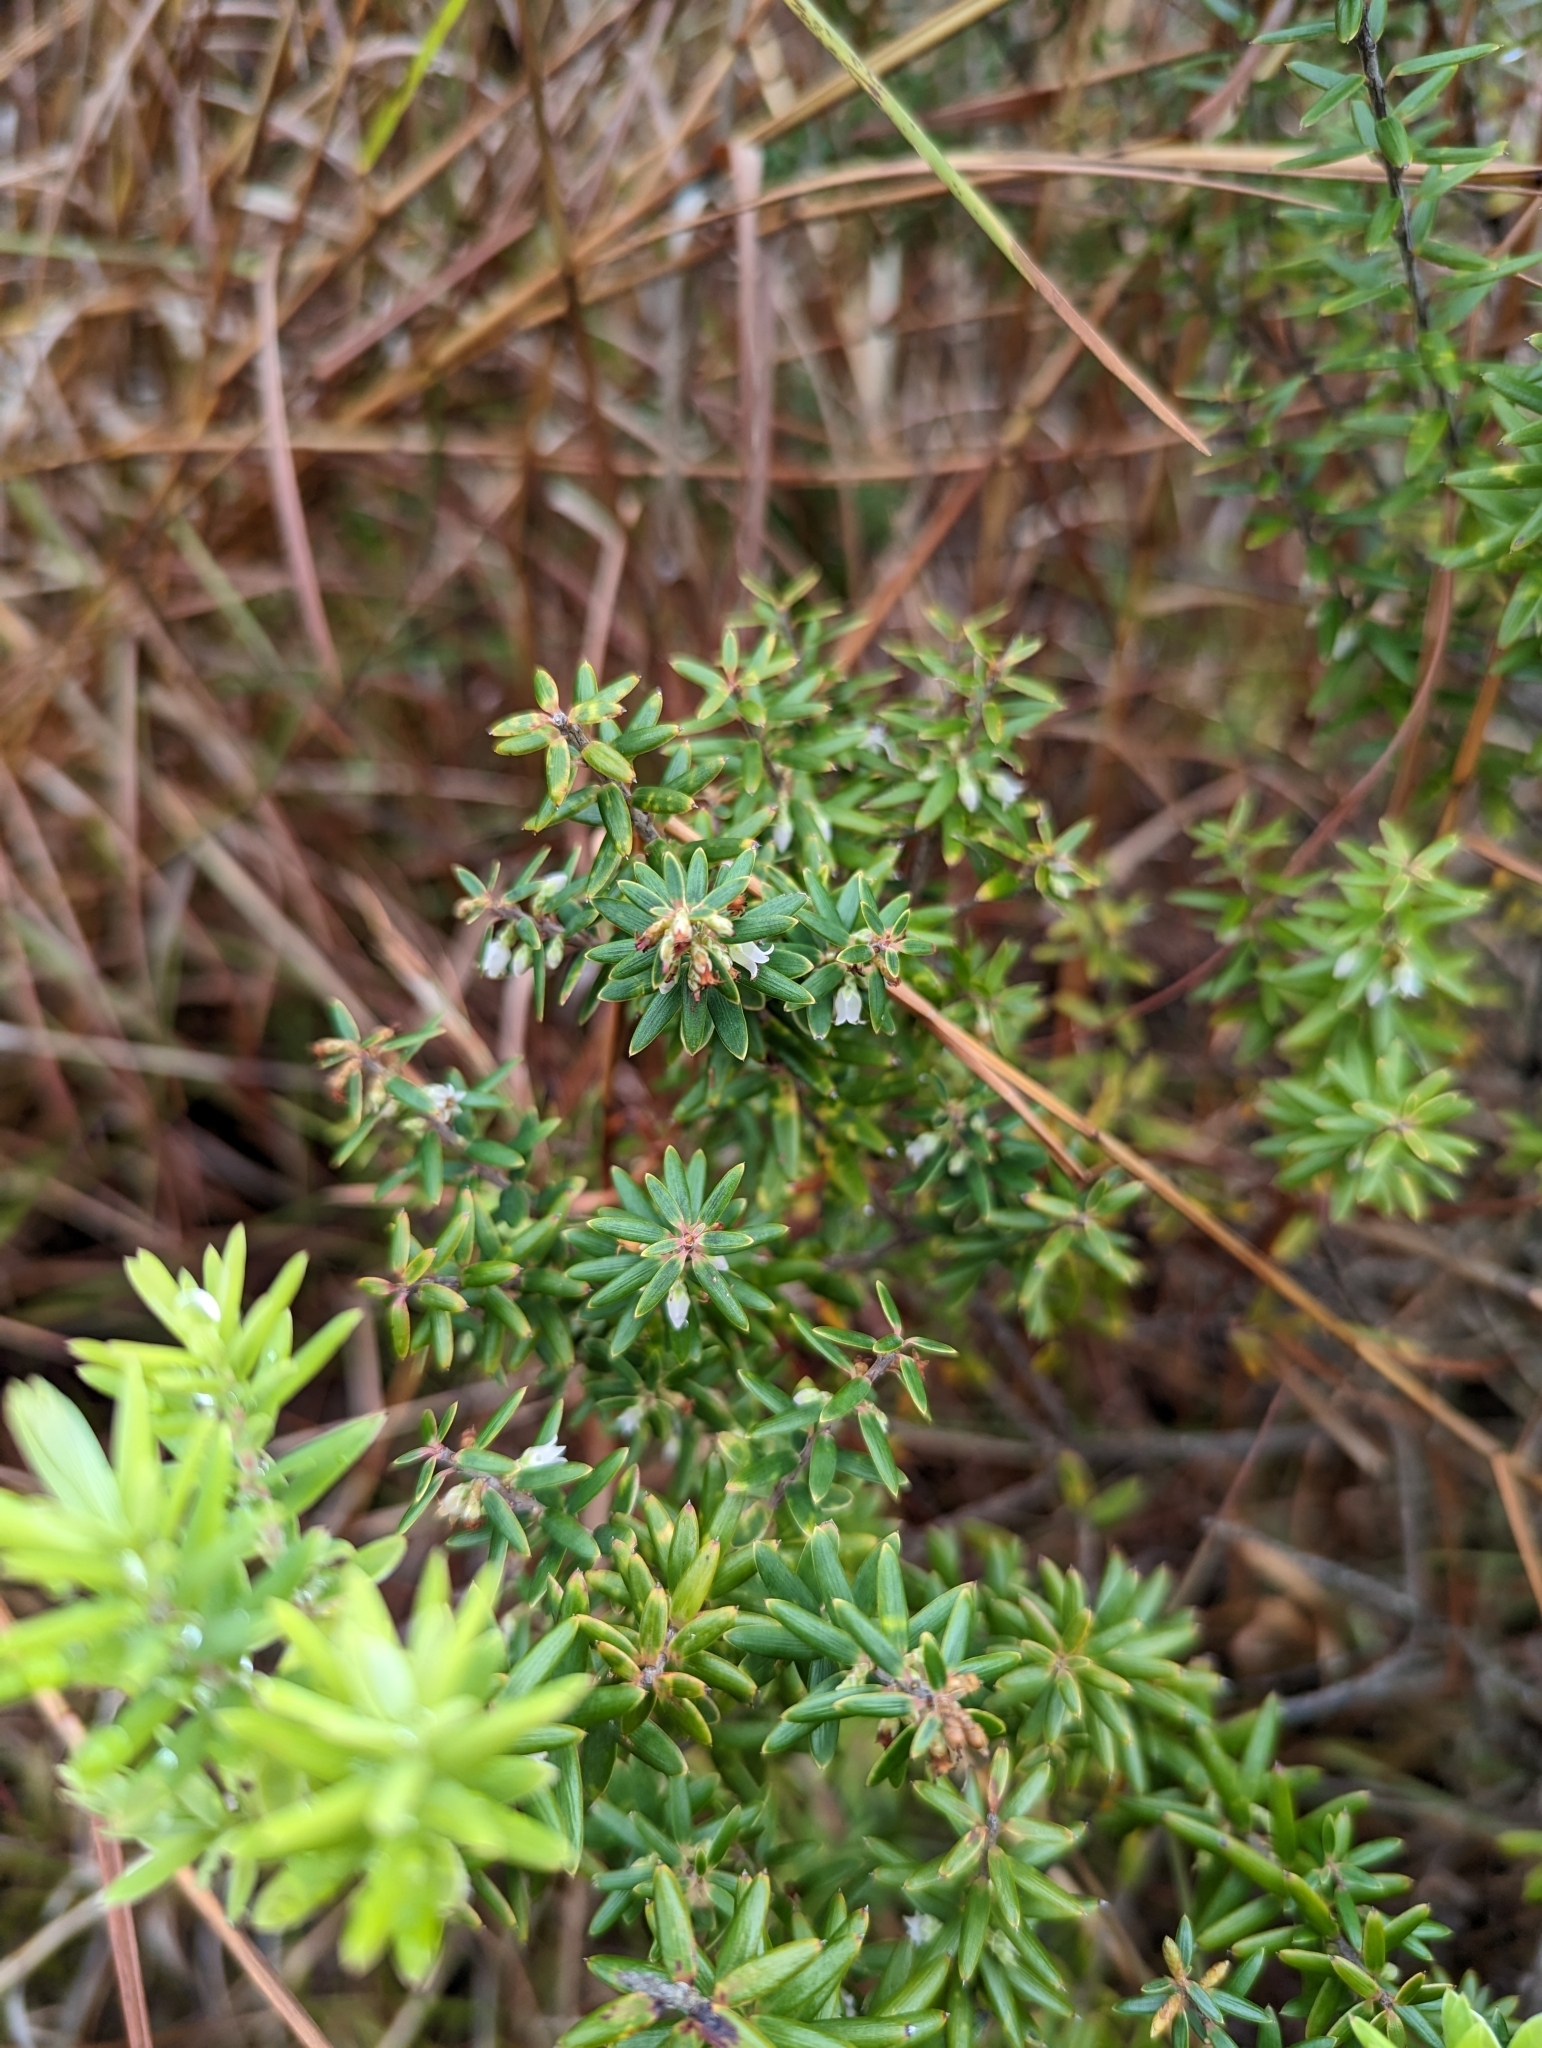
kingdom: Plantae
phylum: Tracheophyta
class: Magnoliopsida
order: Ericales
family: Ericaceae
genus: Leptecophylla
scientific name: Leptecophylla tameiameiae
